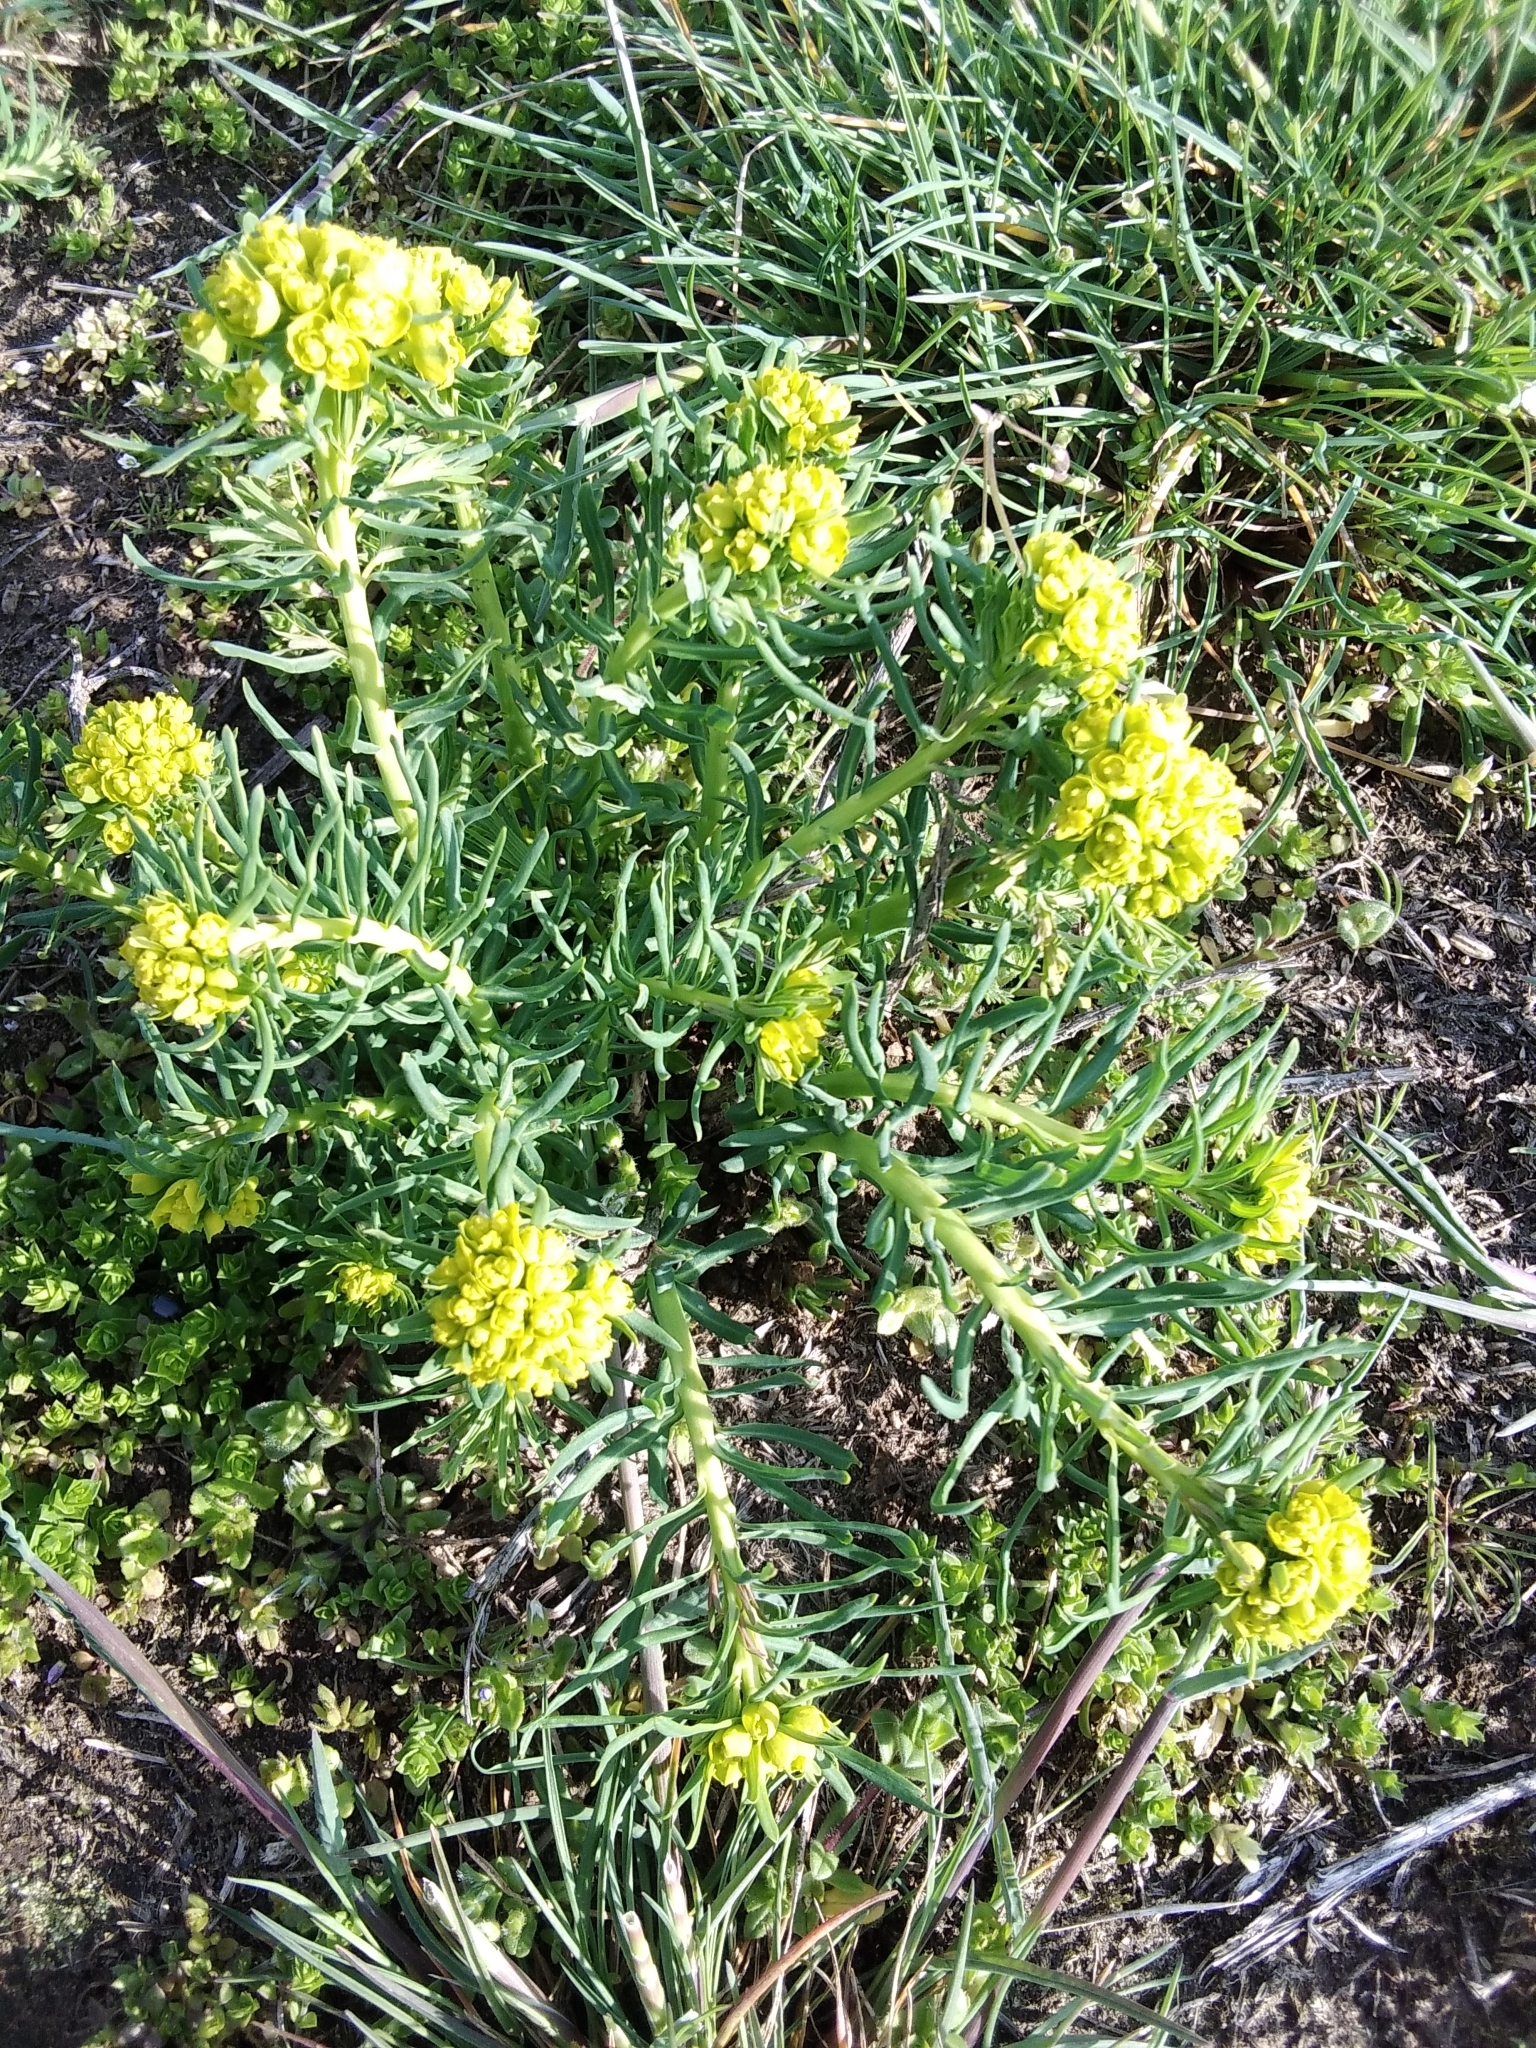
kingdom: Plantae
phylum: Tracheophyta
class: Magnoliopsida
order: Malpighiales
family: Euphorbiaceae
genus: Euphorbia
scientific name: Euphorbia cyparissias
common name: Cypress spurge
